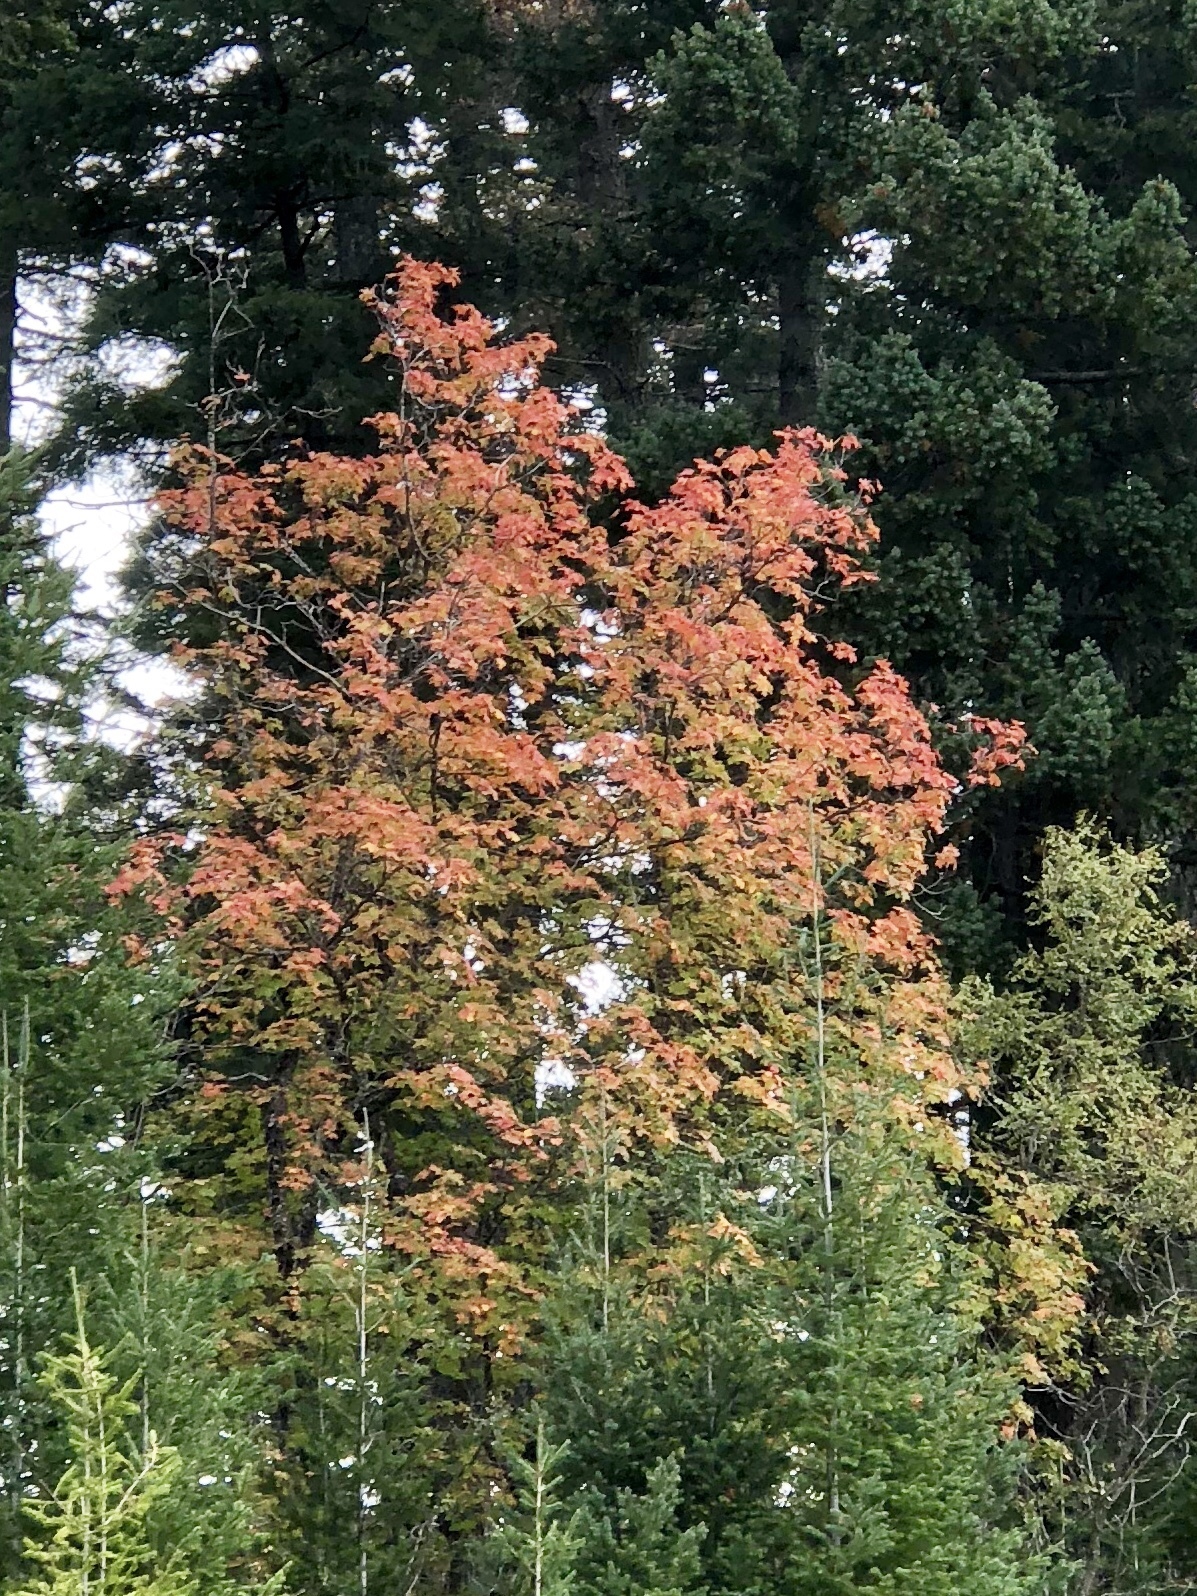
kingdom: Plantae
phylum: Tracheophyta
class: Magnoliopsida
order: Sapindales
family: Sapindaceae
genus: Acer
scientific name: Acer grandidentatum
